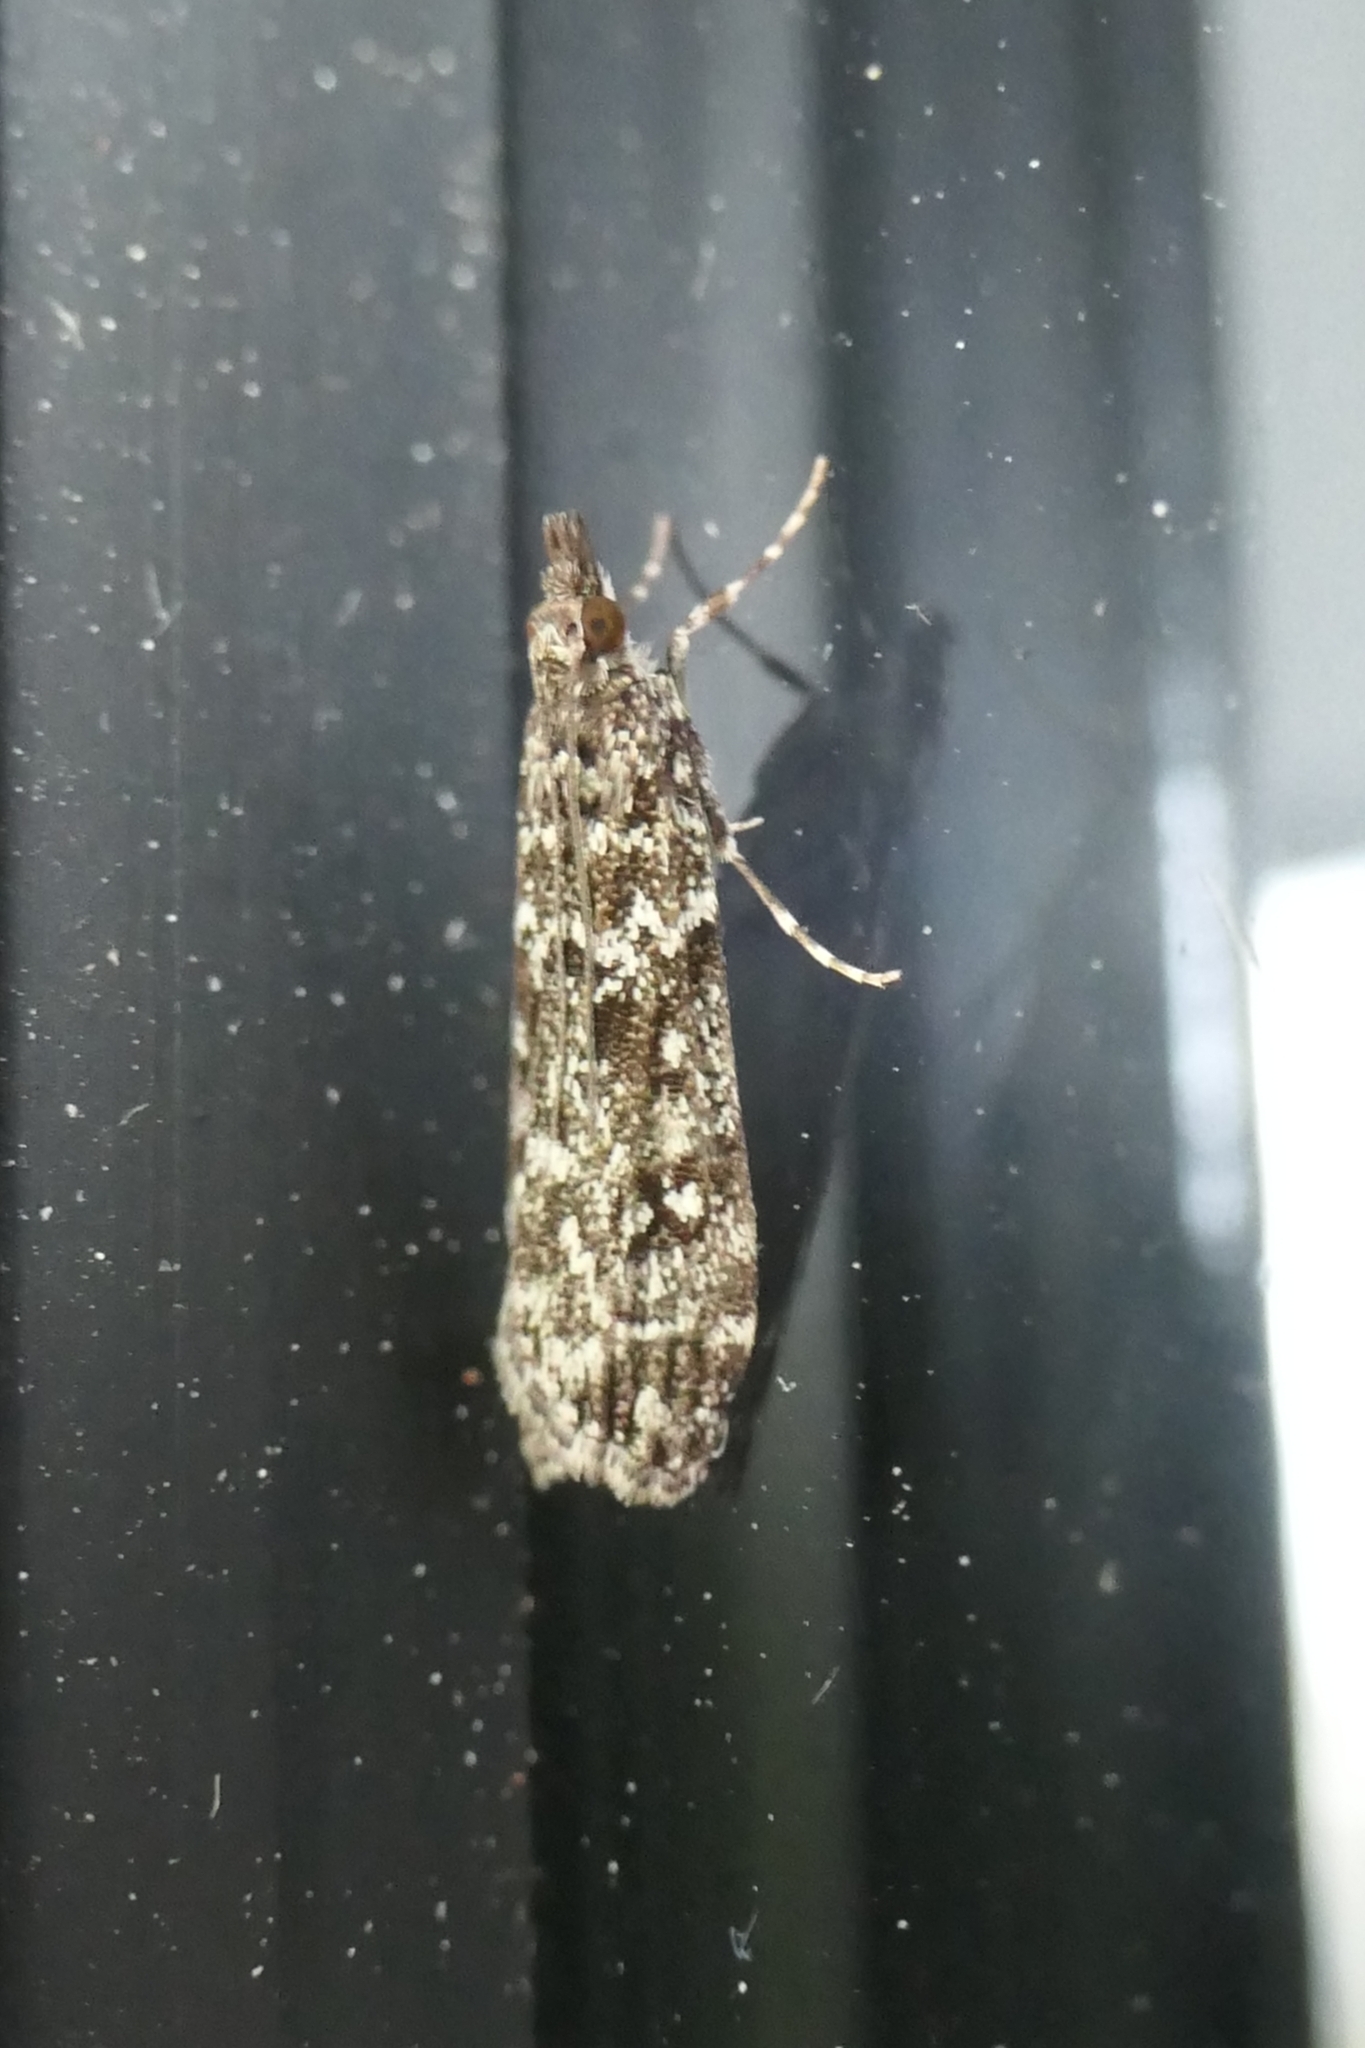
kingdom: Animalia
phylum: Arthropoda
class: Insecta
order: Lepidoptera
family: Crambidae
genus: Eudonia
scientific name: Eudonia philerga
